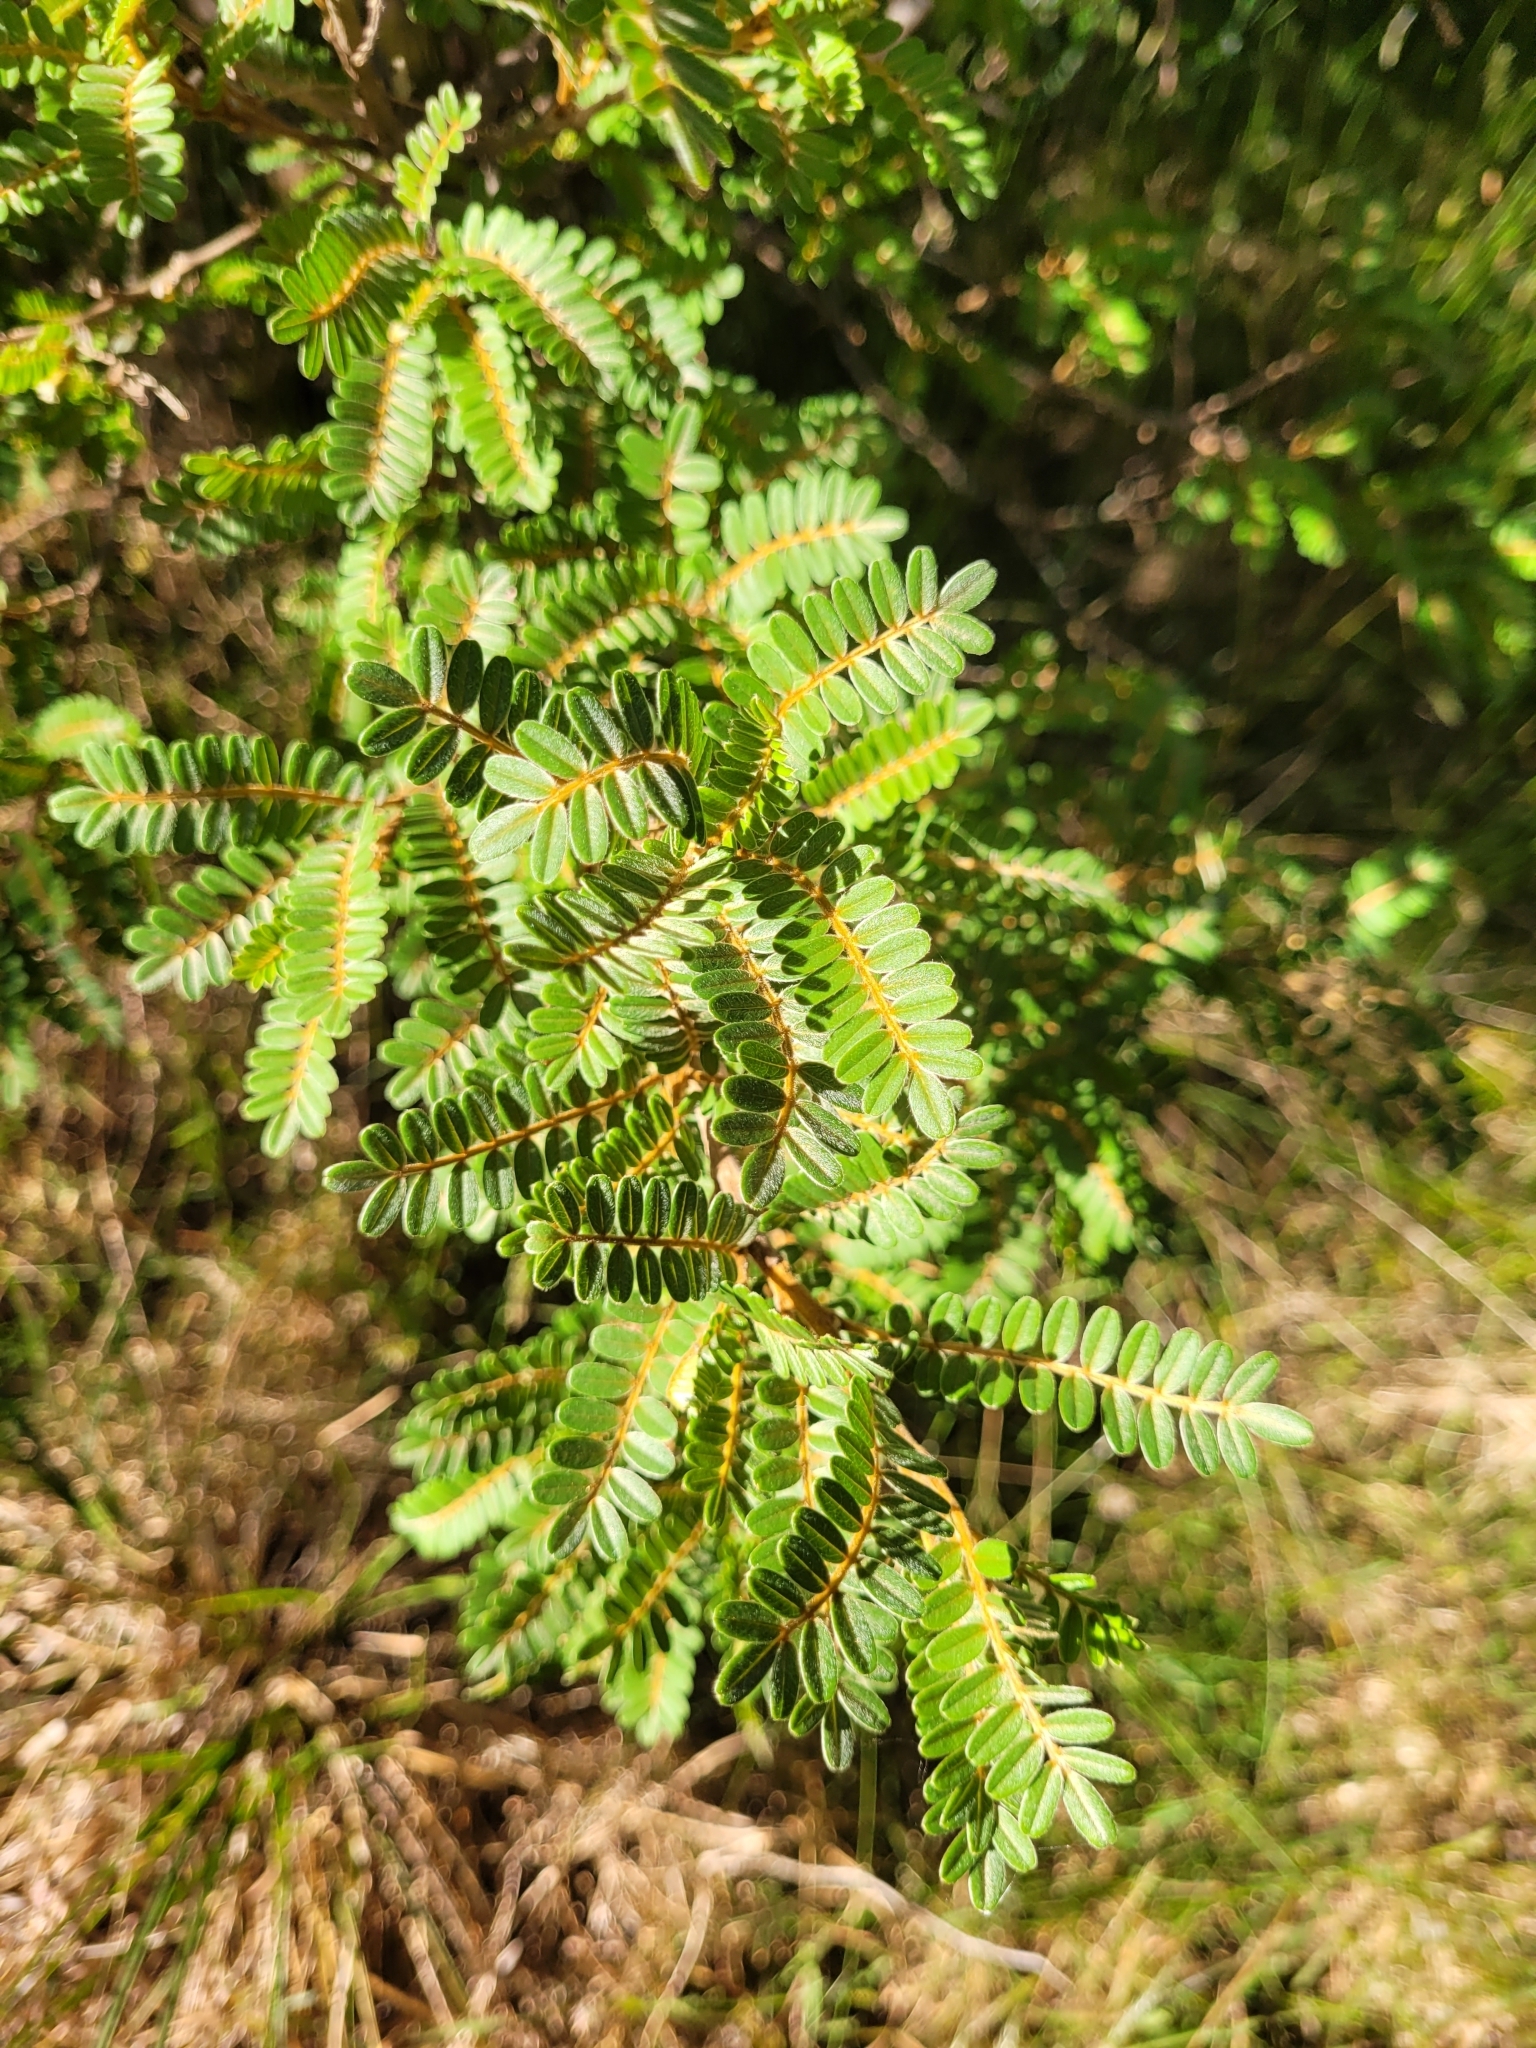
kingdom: Plantae
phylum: Tracheophyta
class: Magnoliopsida
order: Fabales
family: Fabaceae
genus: Sophora
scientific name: Sophora denudata
